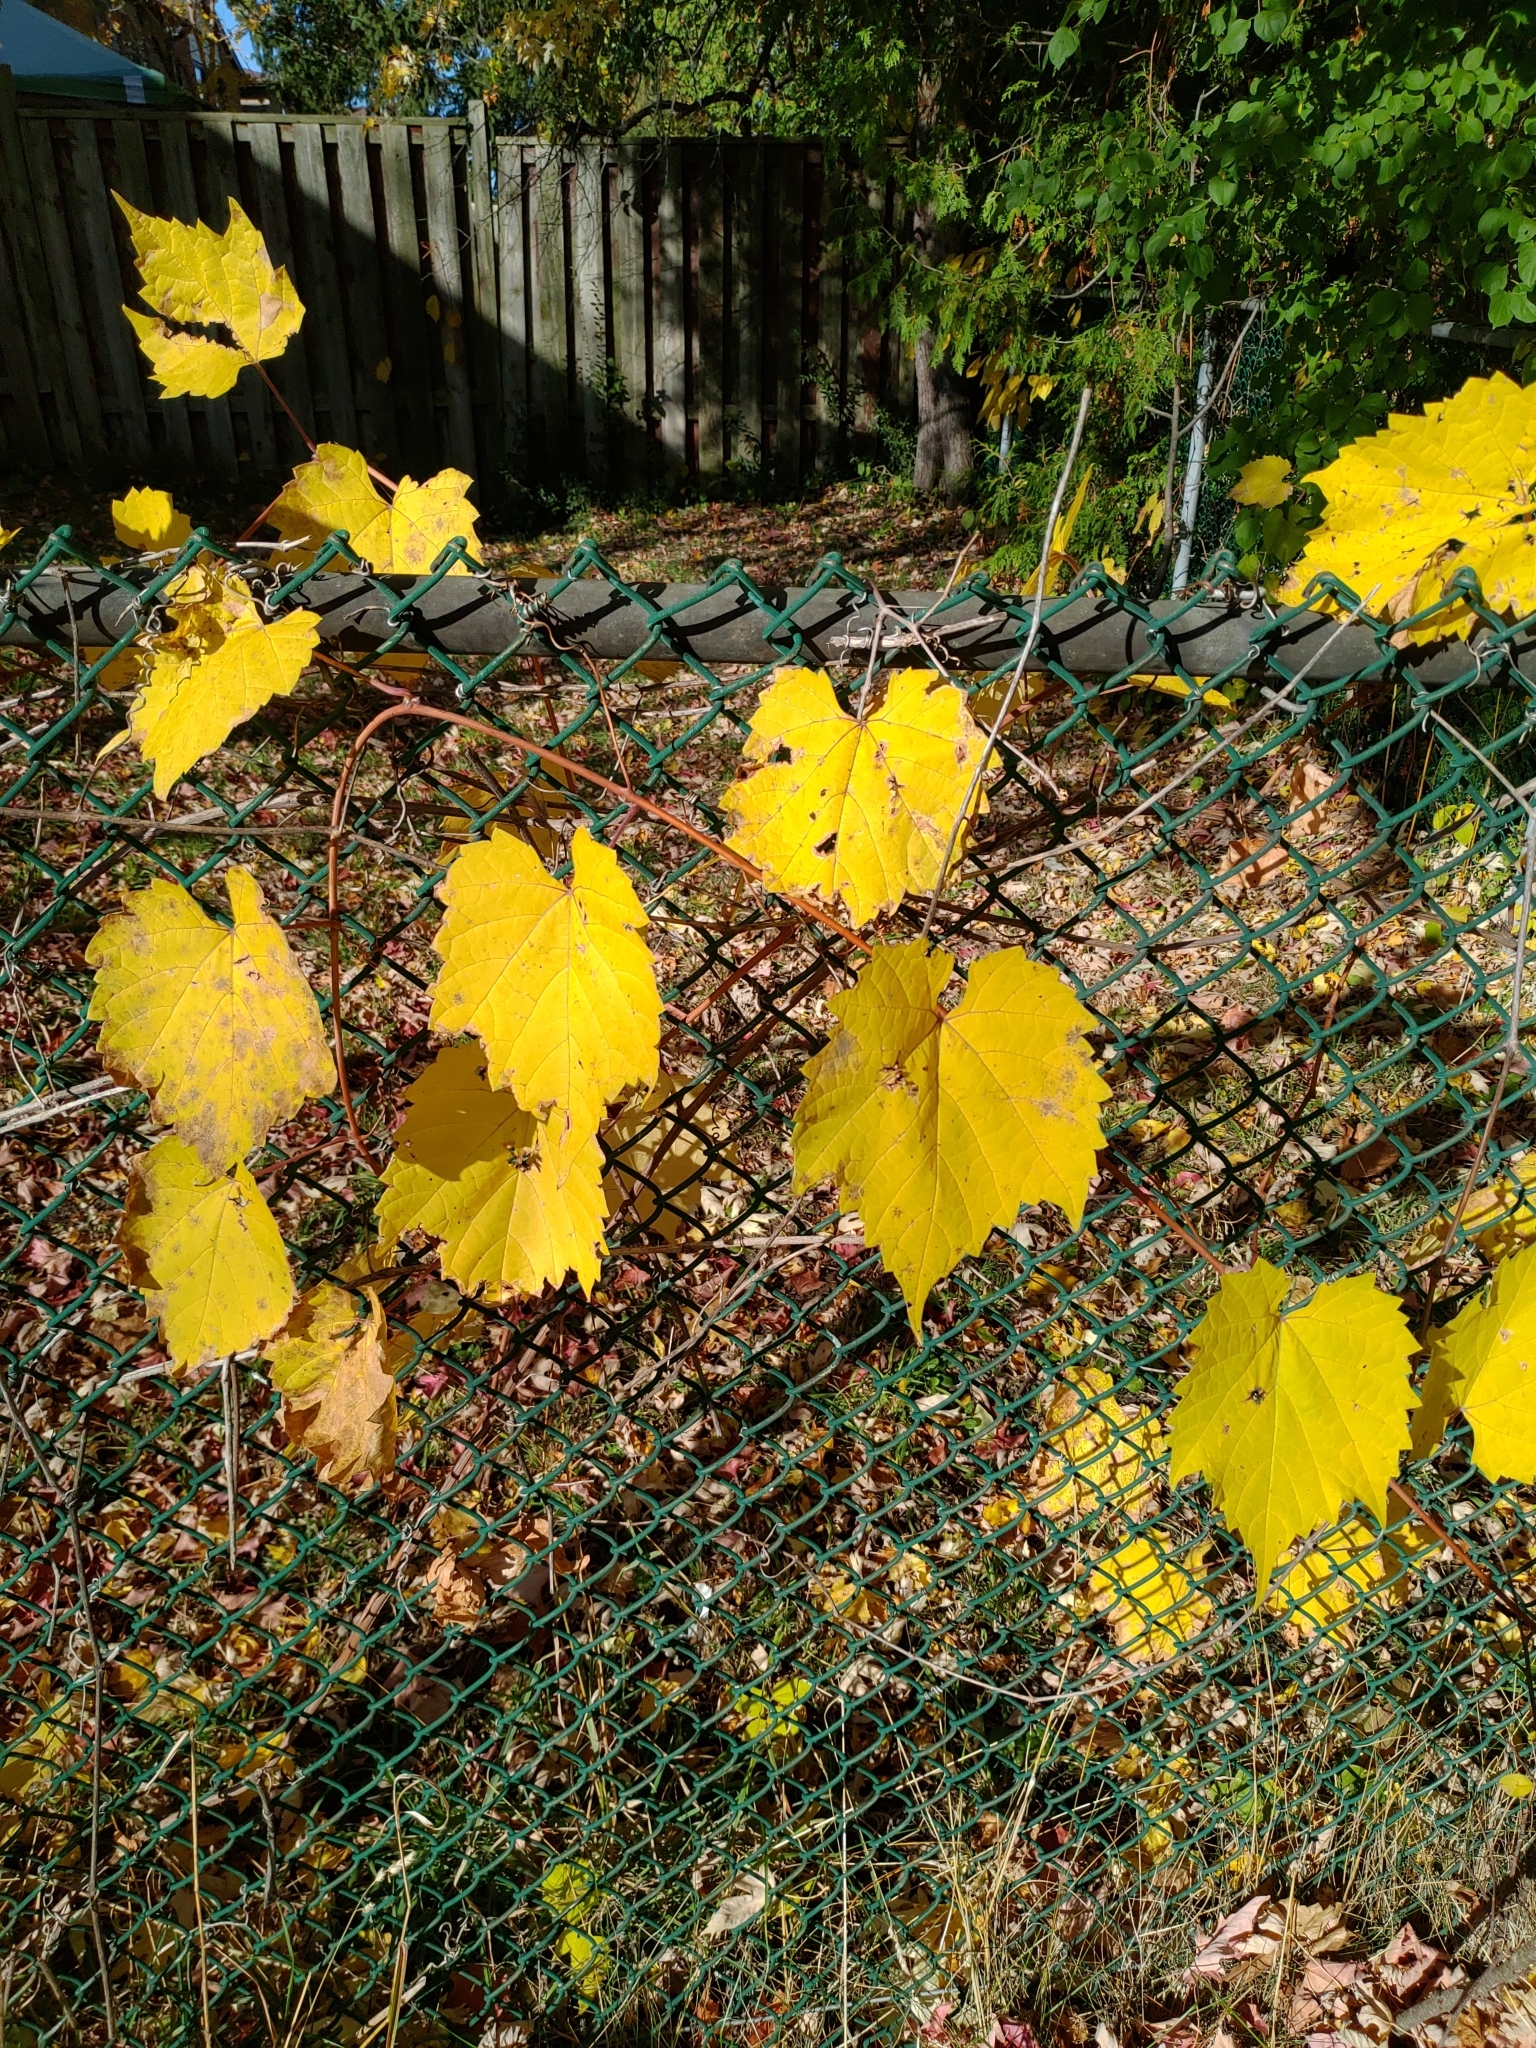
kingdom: Plantae
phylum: Tracheophyta
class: Magnoliopsida
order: Vitales
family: Vitaceae
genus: Vitis
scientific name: Vitis riparia
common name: Frost grape
